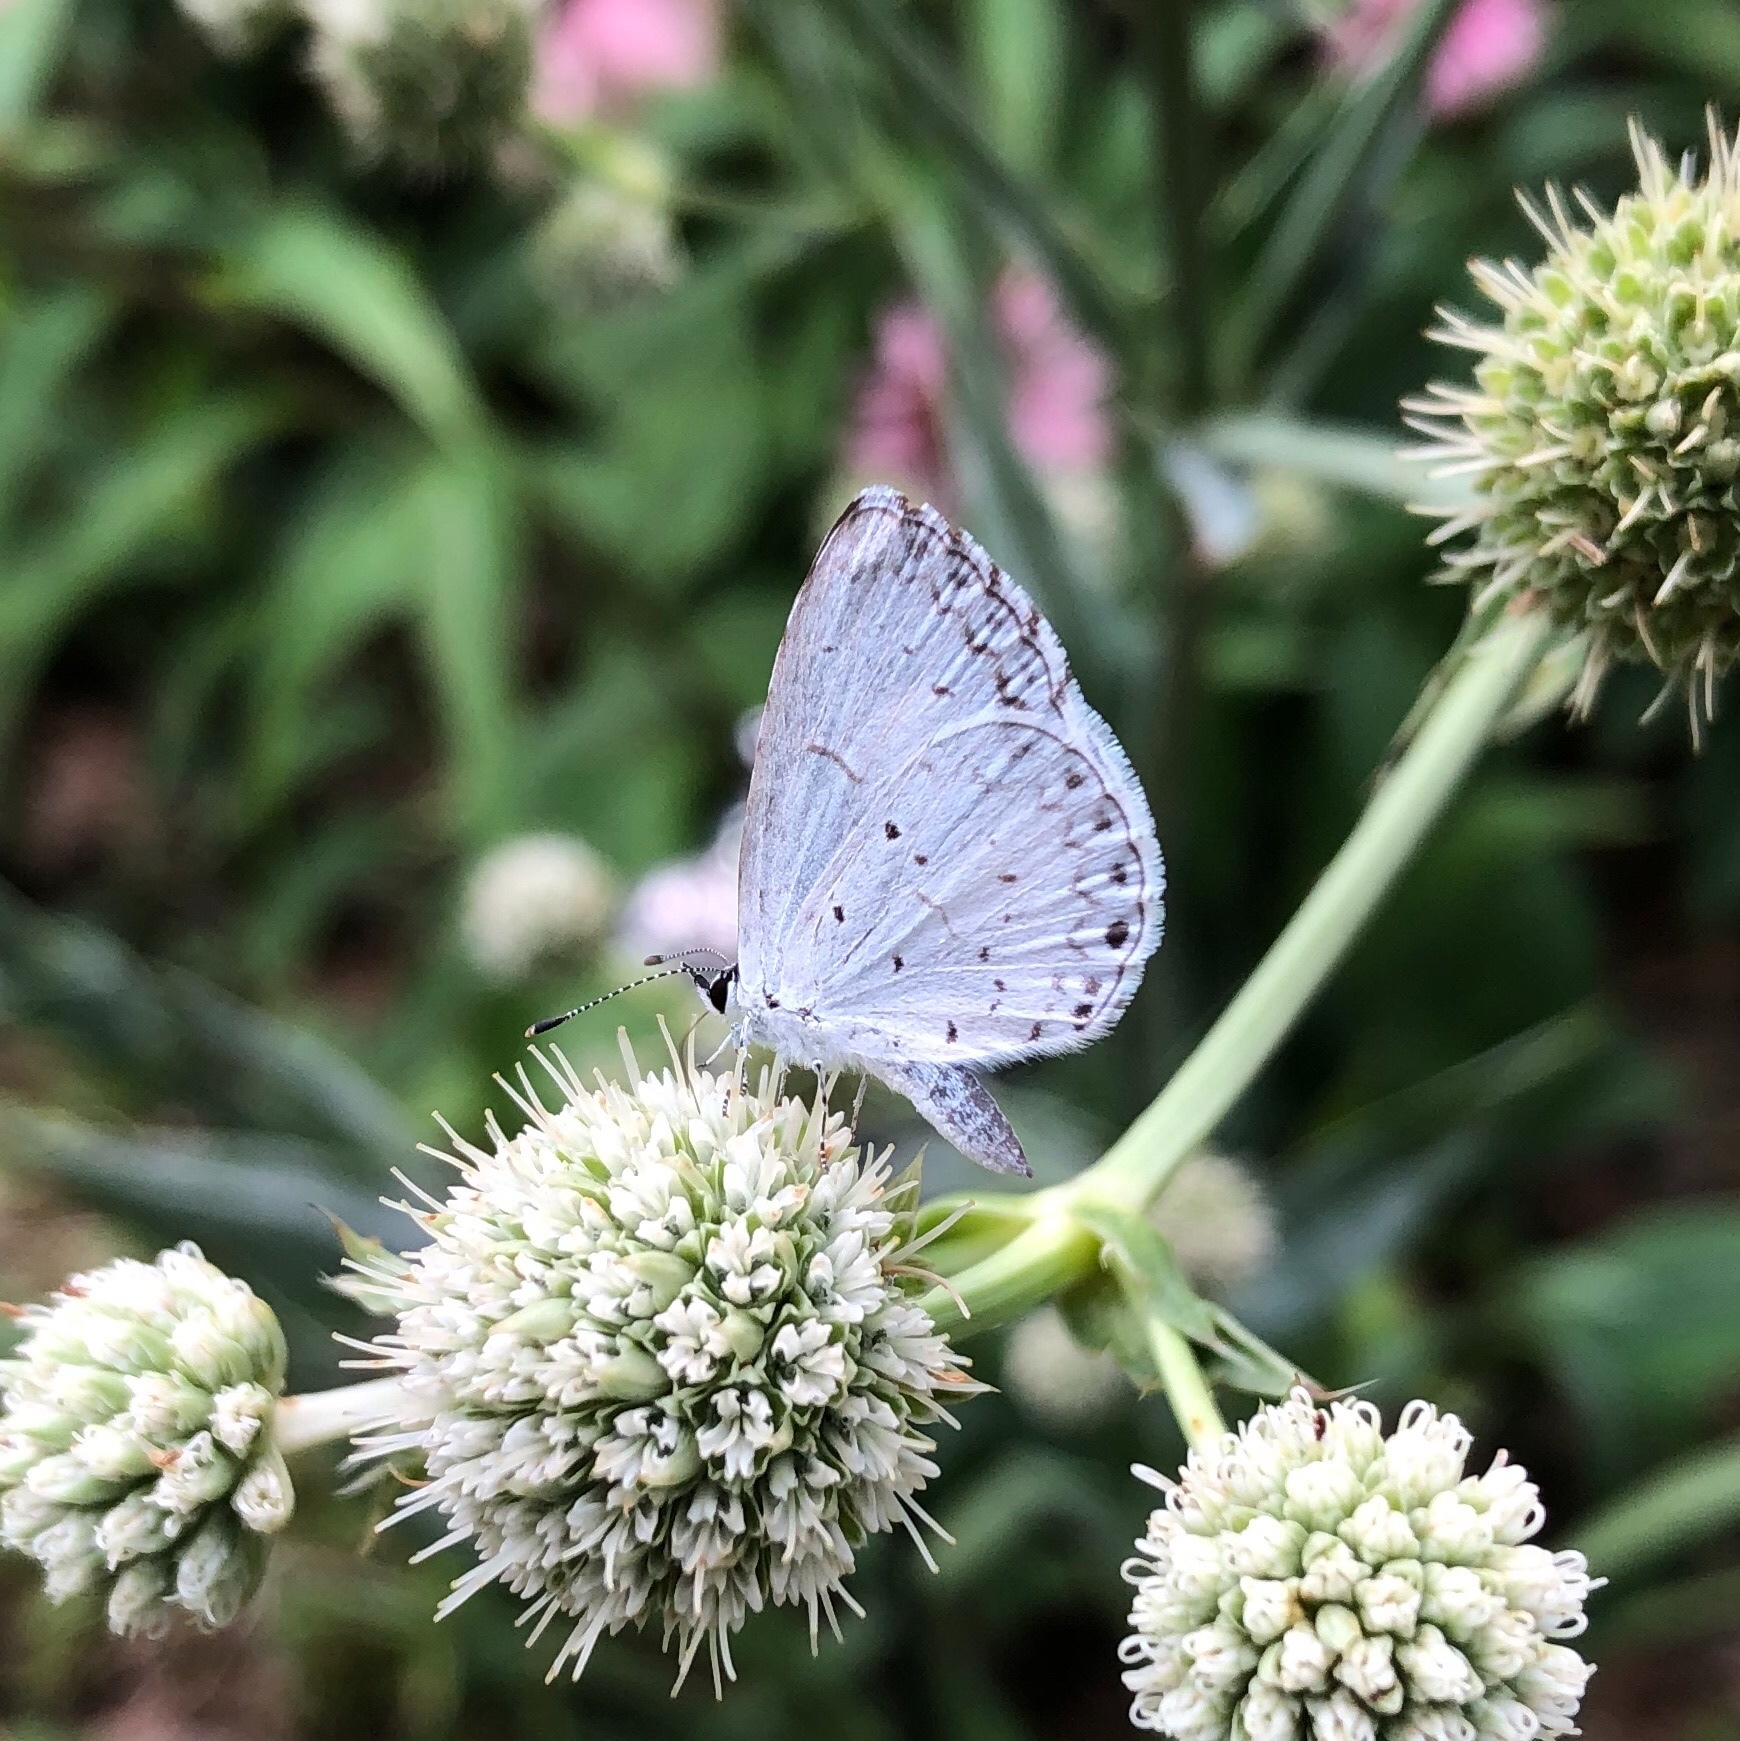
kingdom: Animalia
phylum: Arthropoda
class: Insecta
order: Lepidoptera
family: Lycaenidae
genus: Cyaniris
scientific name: Cyaniris neglecta
